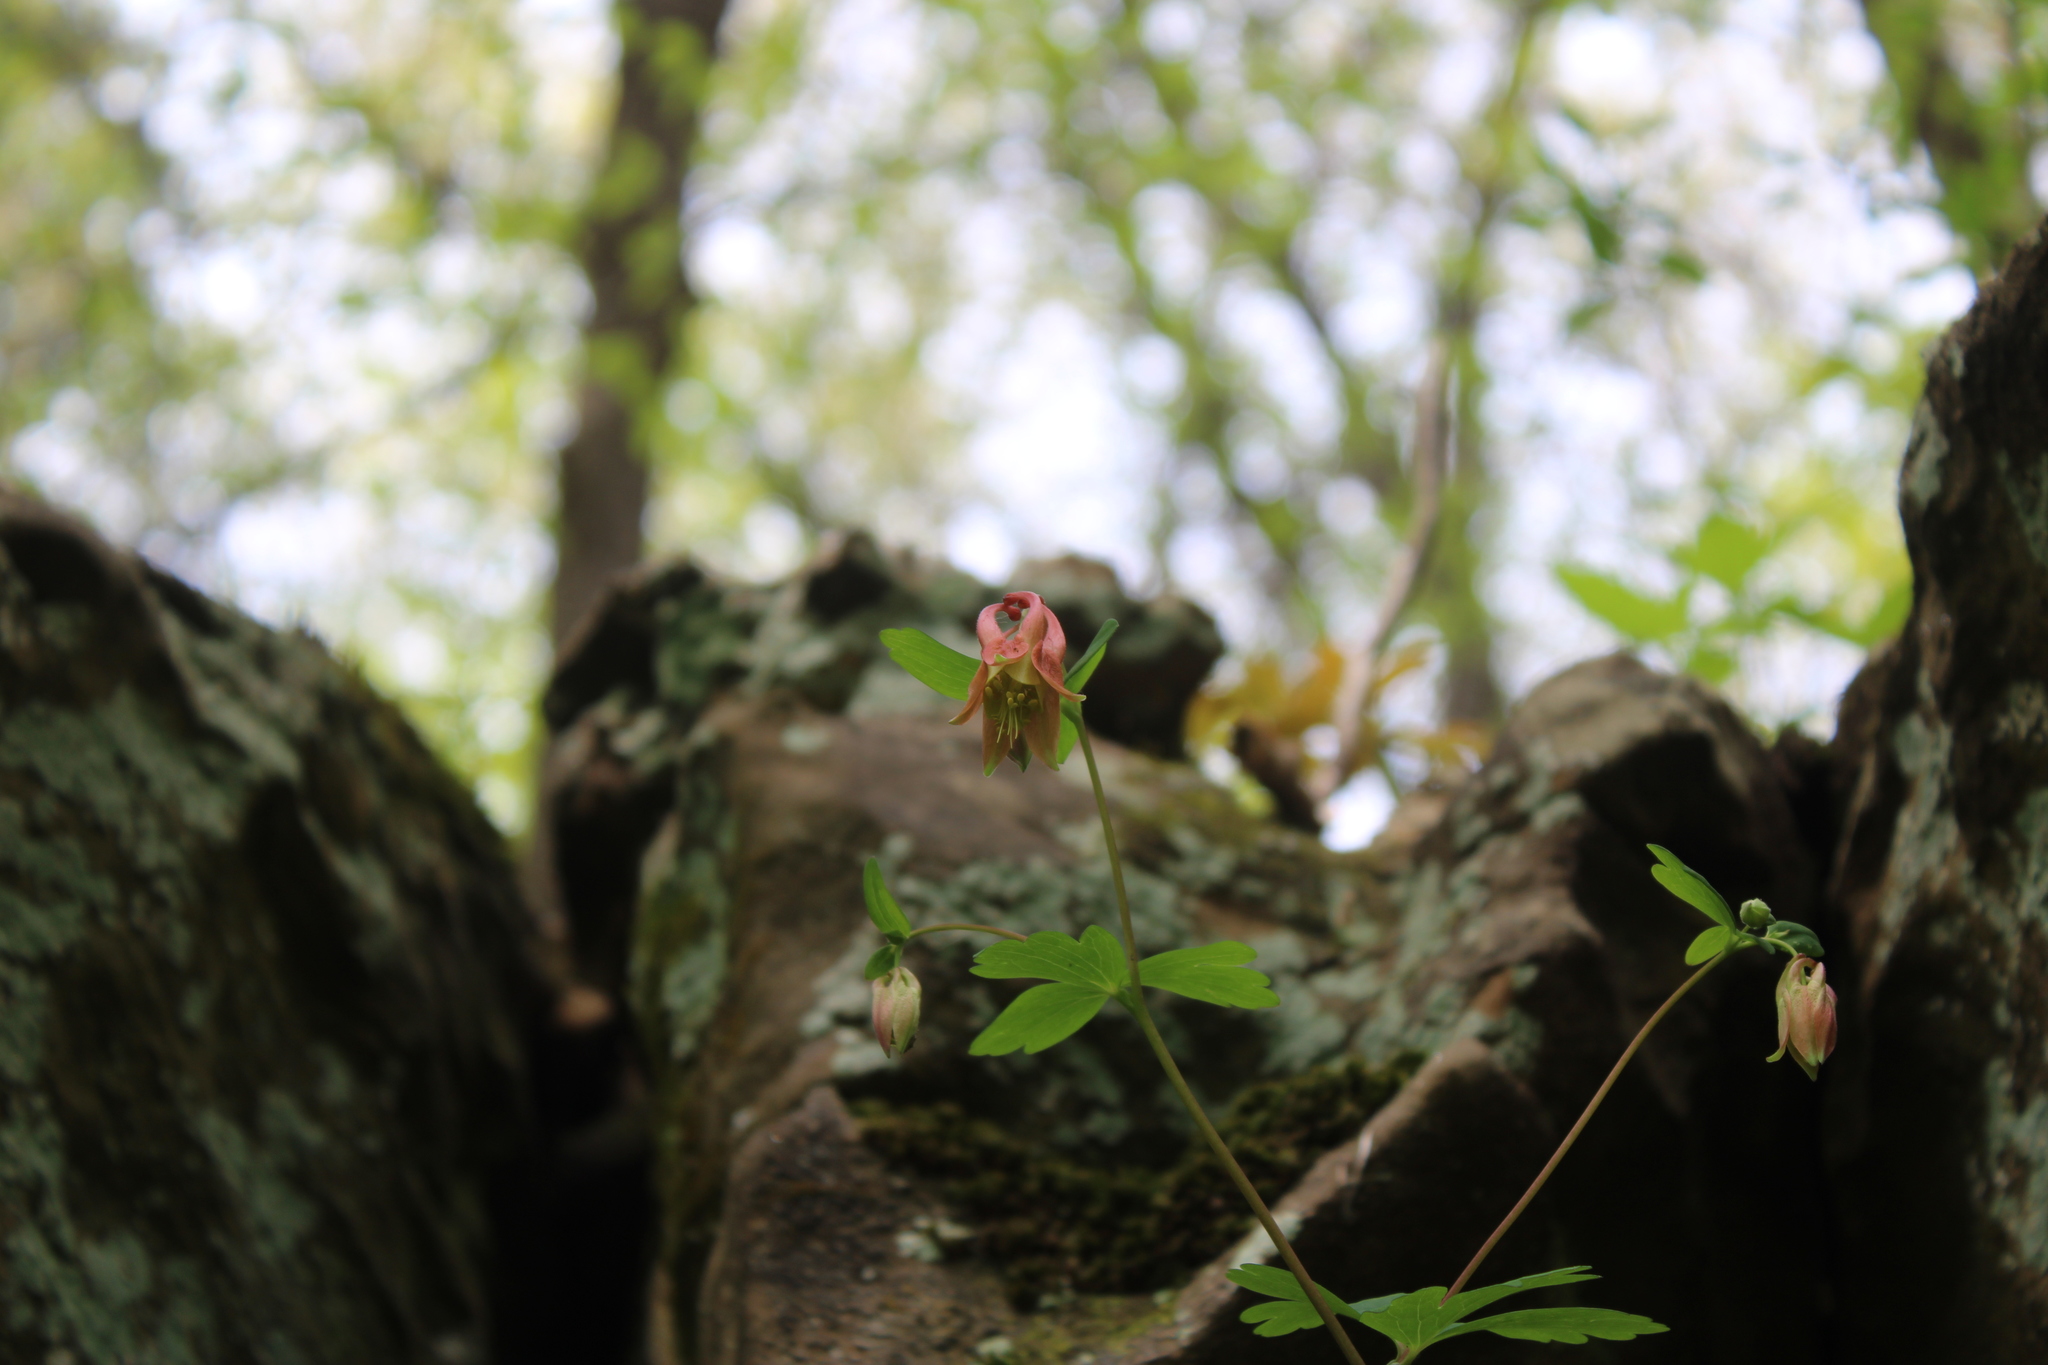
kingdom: Plantae
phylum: Tracheophyta
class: Magnoliopsida
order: Ranunculales
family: Ranunculaceae
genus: Aquilegia
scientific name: Aquilegia canadensis
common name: American columbine
